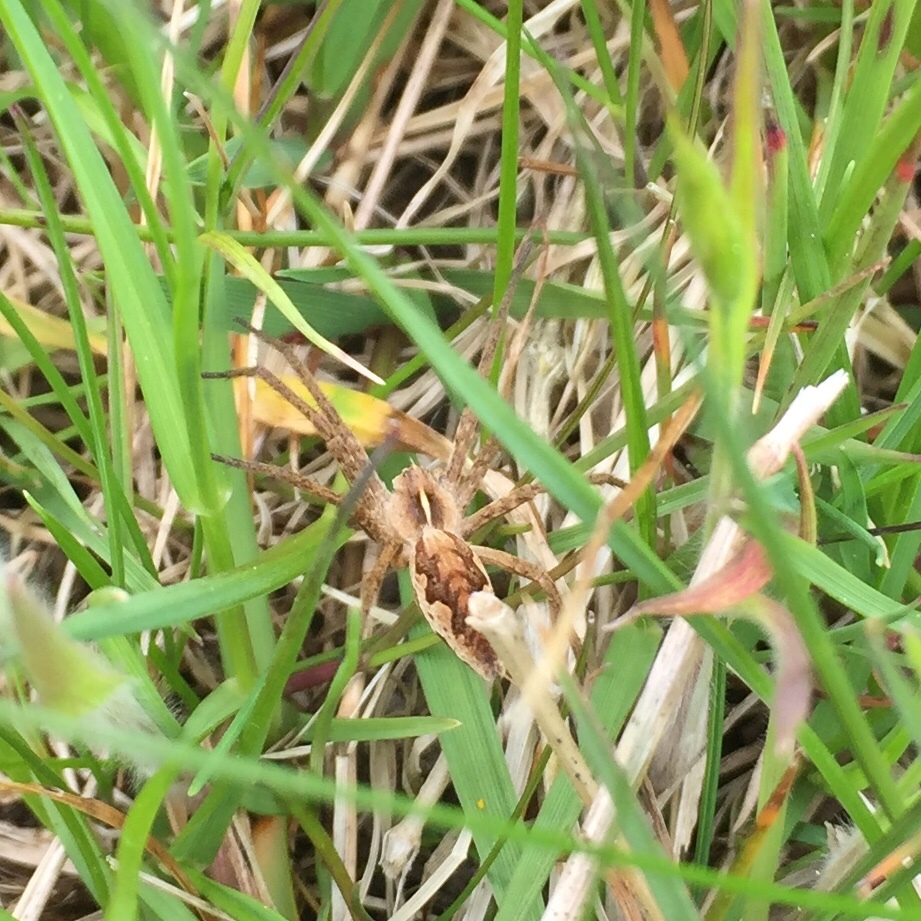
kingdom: Animalia
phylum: Arthropoda
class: Arachnida
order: Araneae
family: Pisauridae
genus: Pisaura
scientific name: Pisaura mirabilis
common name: Tent spider
